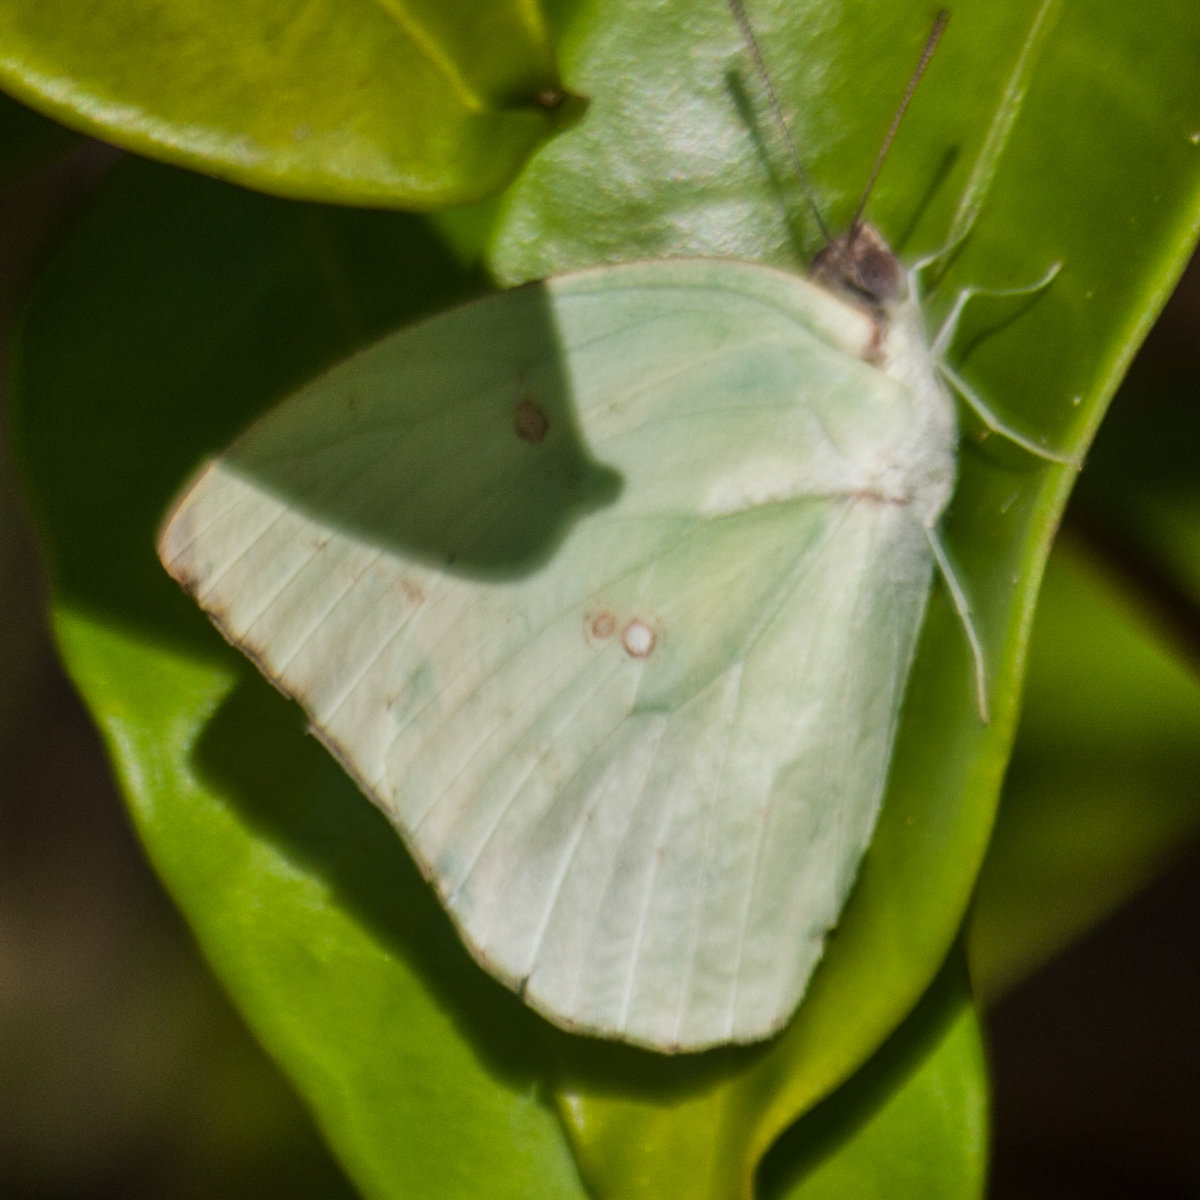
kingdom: Animalia
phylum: Arthropoda
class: Insecta
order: Lepidoptera
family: Pieridae
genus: Catopsilia
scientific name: Catopsilia pomona
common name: Common emigrant
